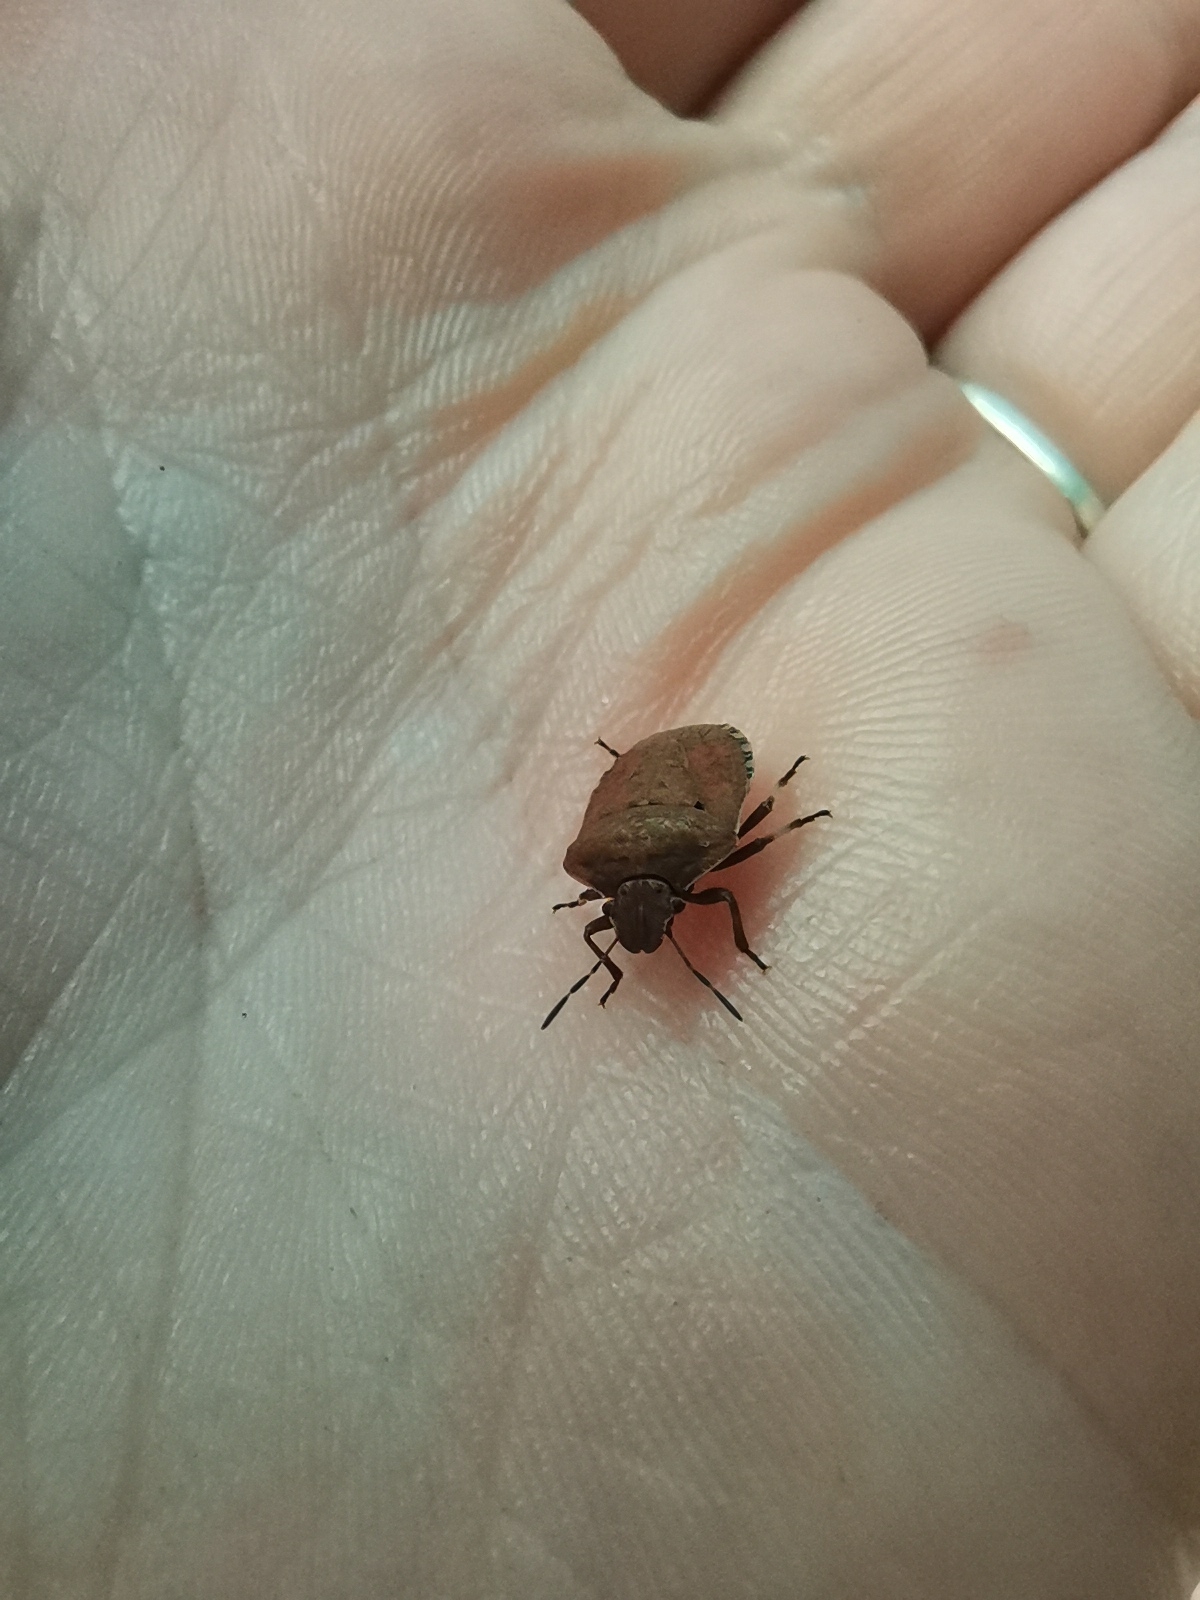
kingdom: Animalia
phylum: Arthropoda
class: Insecta
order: Hemiptera
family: Pentatomidae
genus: Dictyotus
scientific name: Dictyotus caenosus
